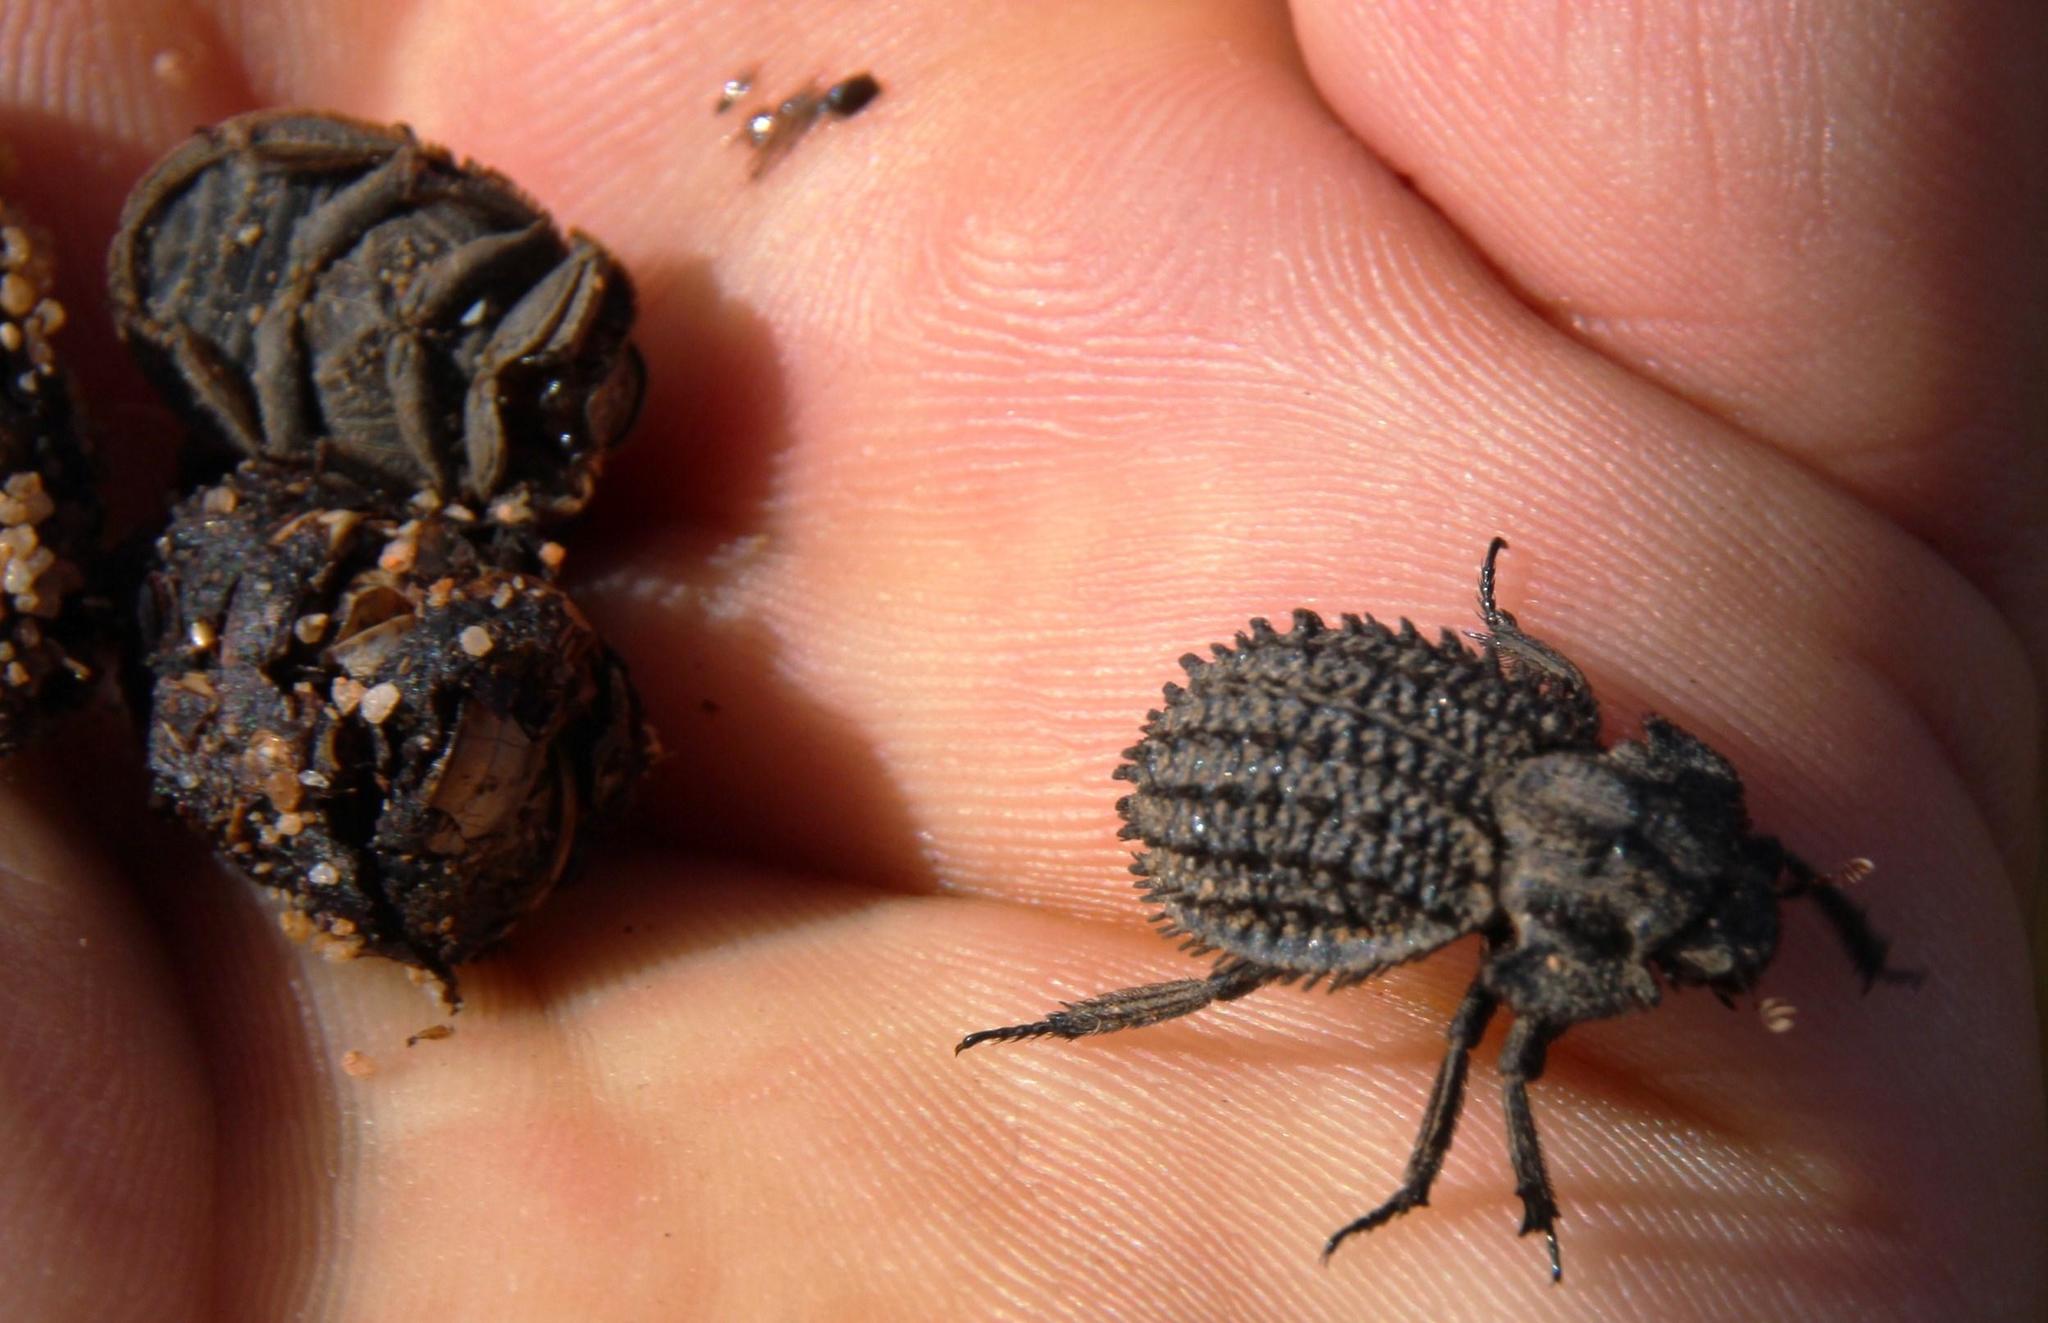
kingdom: Animalia
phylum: Arthropoda
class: Insecta
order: Coleoptera
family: Trogidae
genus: Phoberus
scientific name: Phoberus horridus
